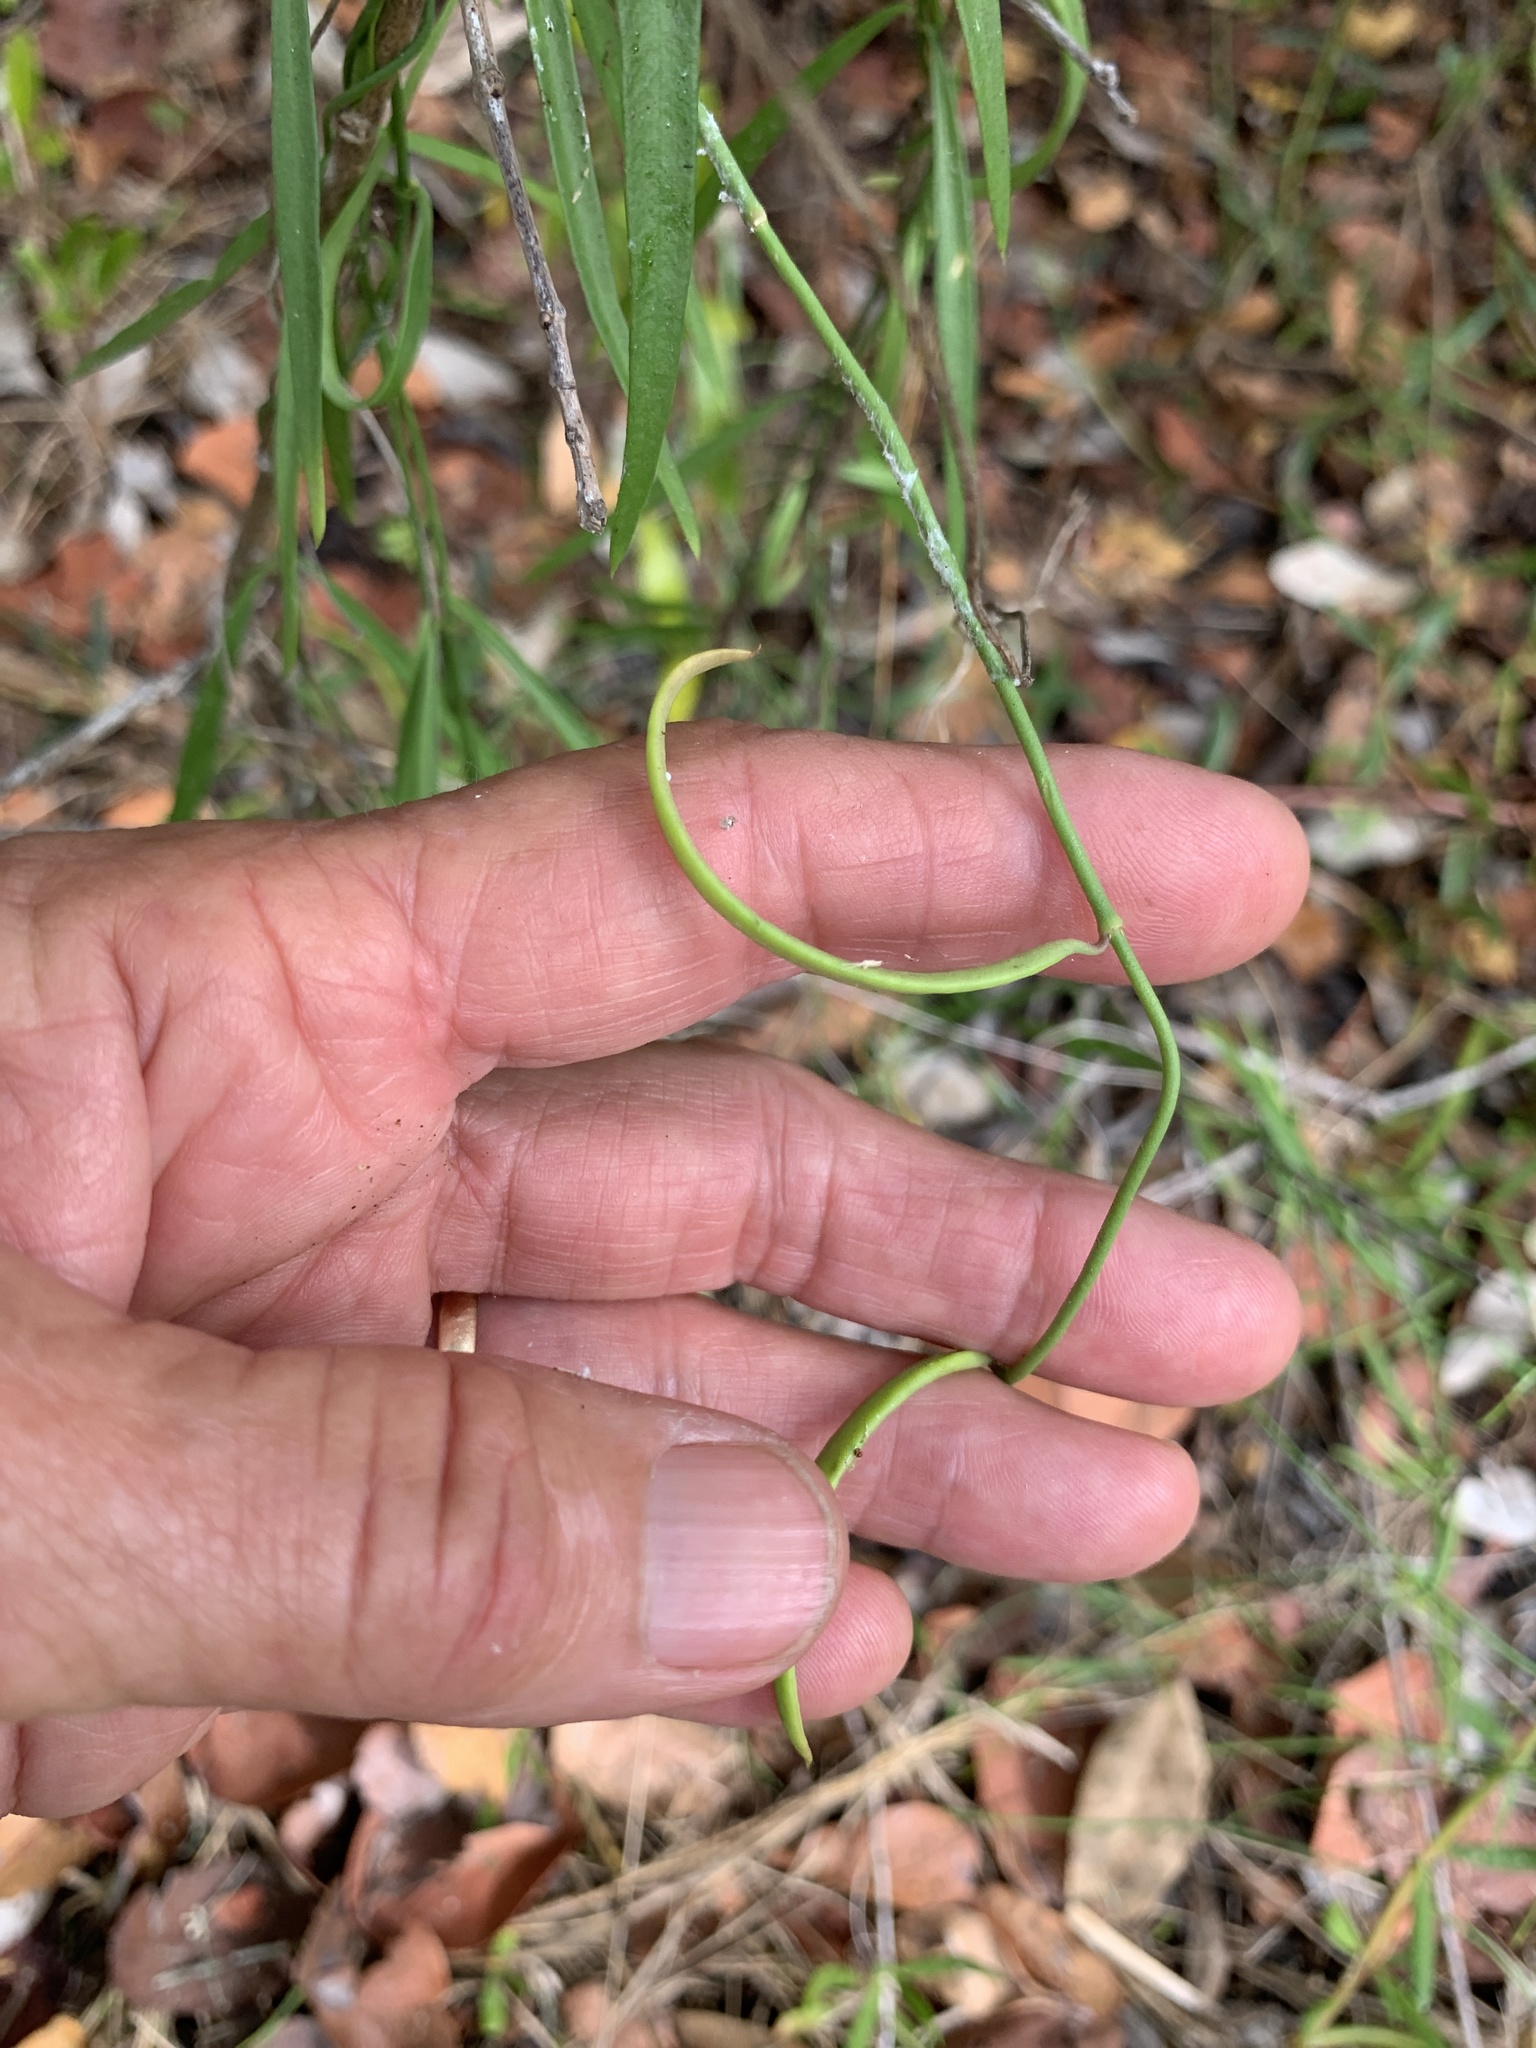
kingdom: Plantae
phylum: Tracheophyta
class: Magnoliopsida
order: Gentianales
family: Apocynaceae
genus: Orthosia
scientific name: Orthosia scoparia
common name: Leafless swallow-wort
